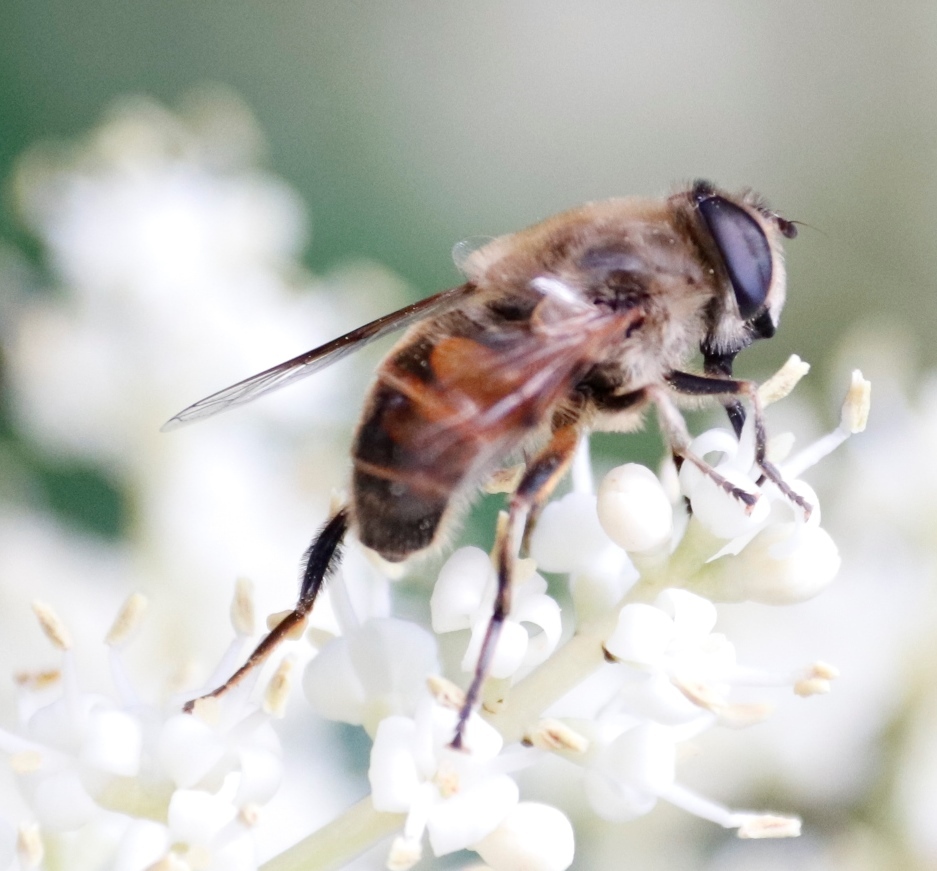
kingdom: Animalia
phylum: Arthropoda
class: Insecta
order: Diptera
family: Syrphidae
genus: Eristalis
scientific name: Eristalis tenax
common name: Drone fly
